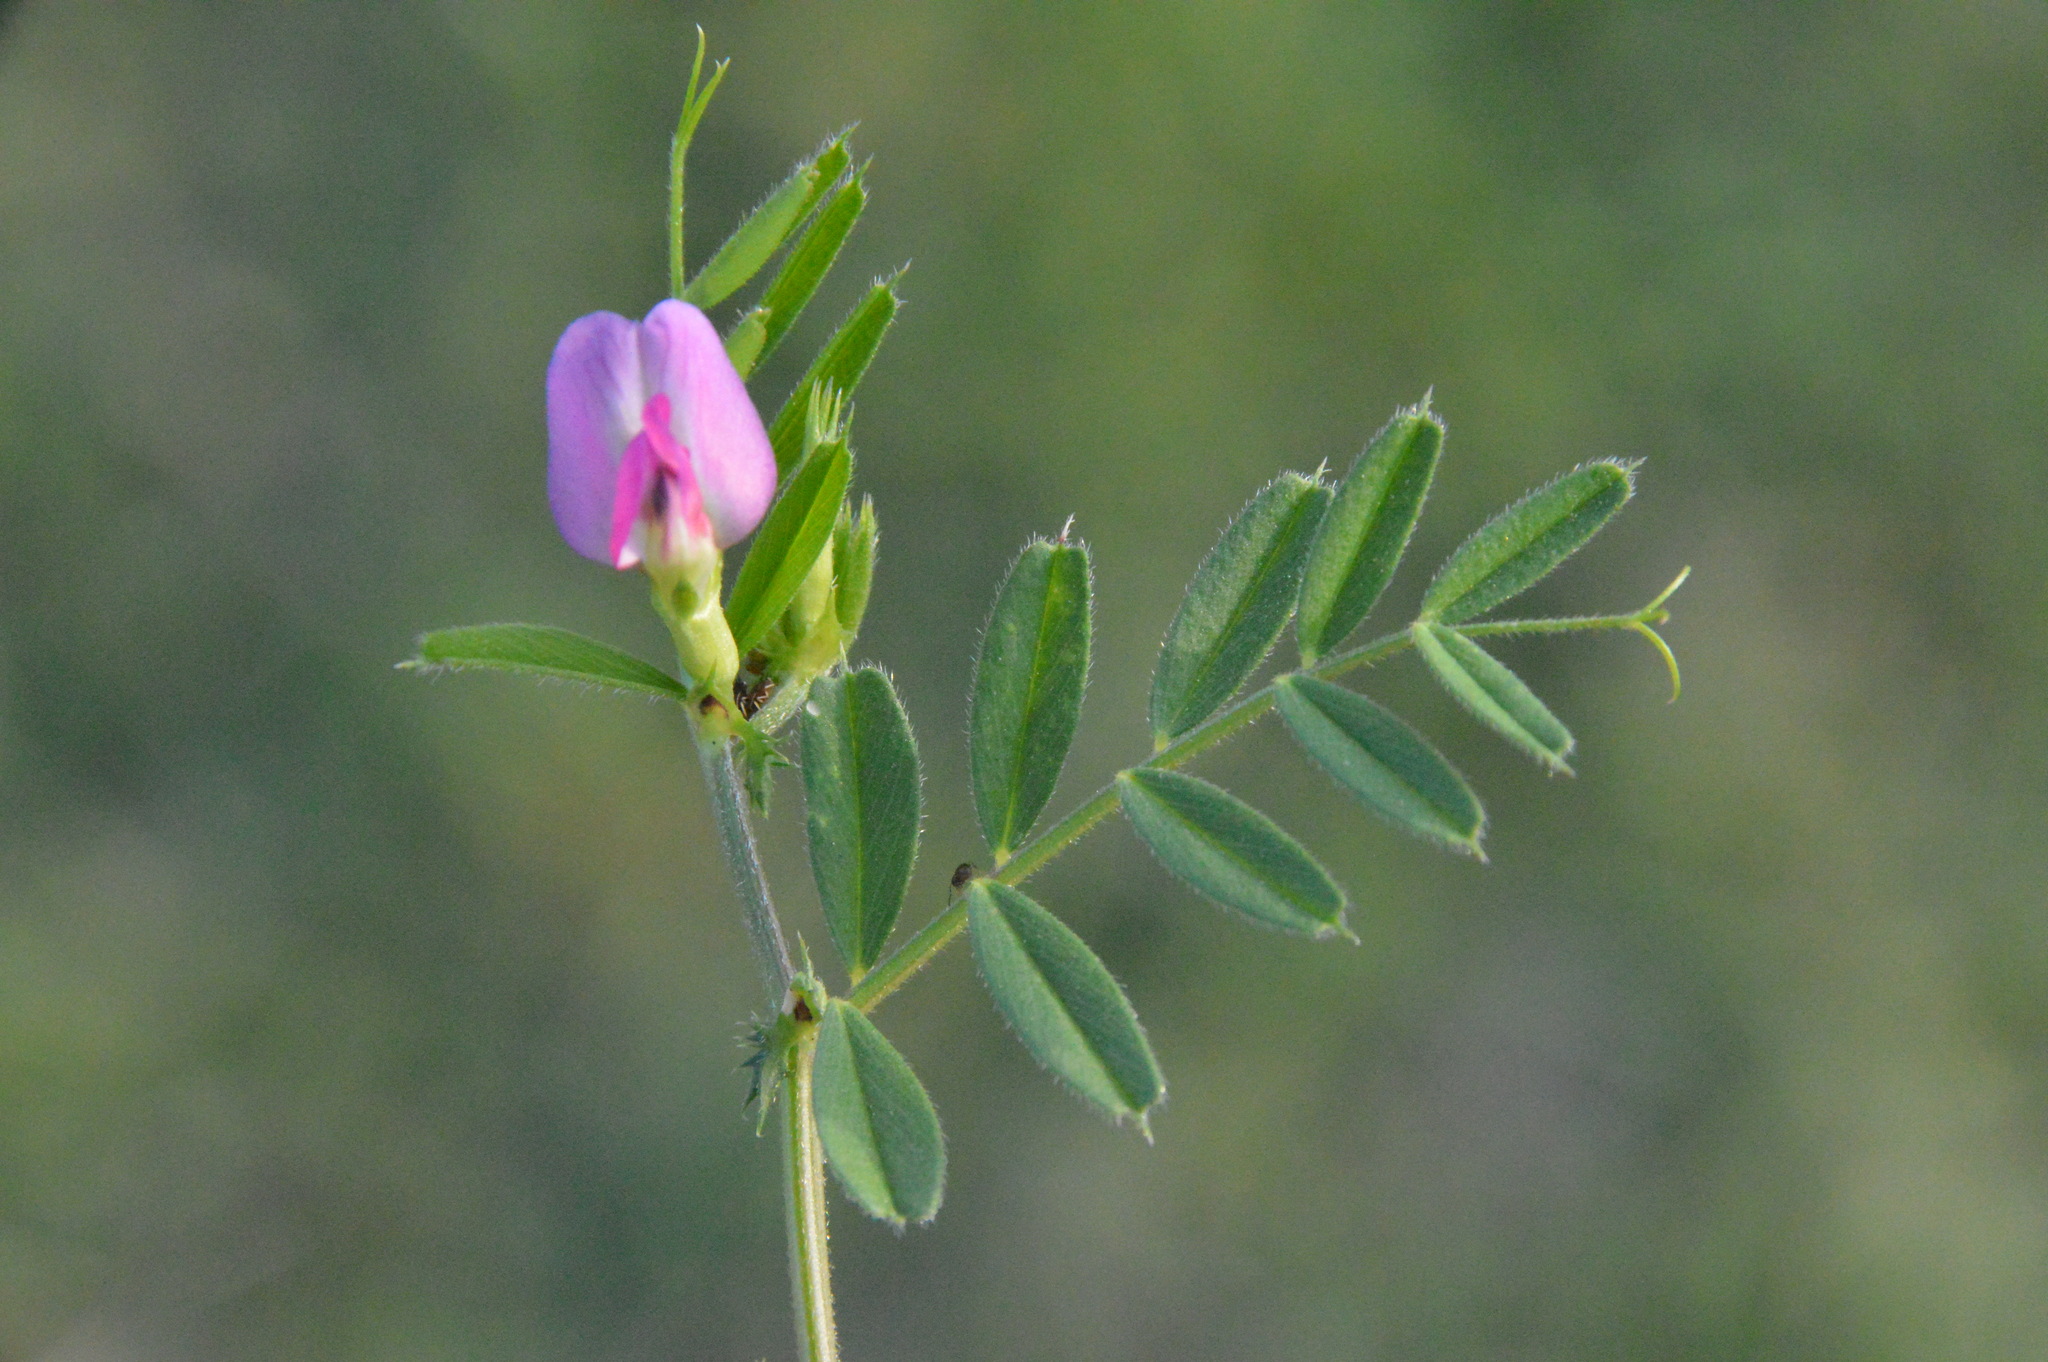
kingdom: Plantae
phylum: Tracheophyta
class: Magnoliopsida
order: Fabales
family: Fabaceae
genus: Vicia
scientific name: Vicia sativa
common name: Garden vetch
